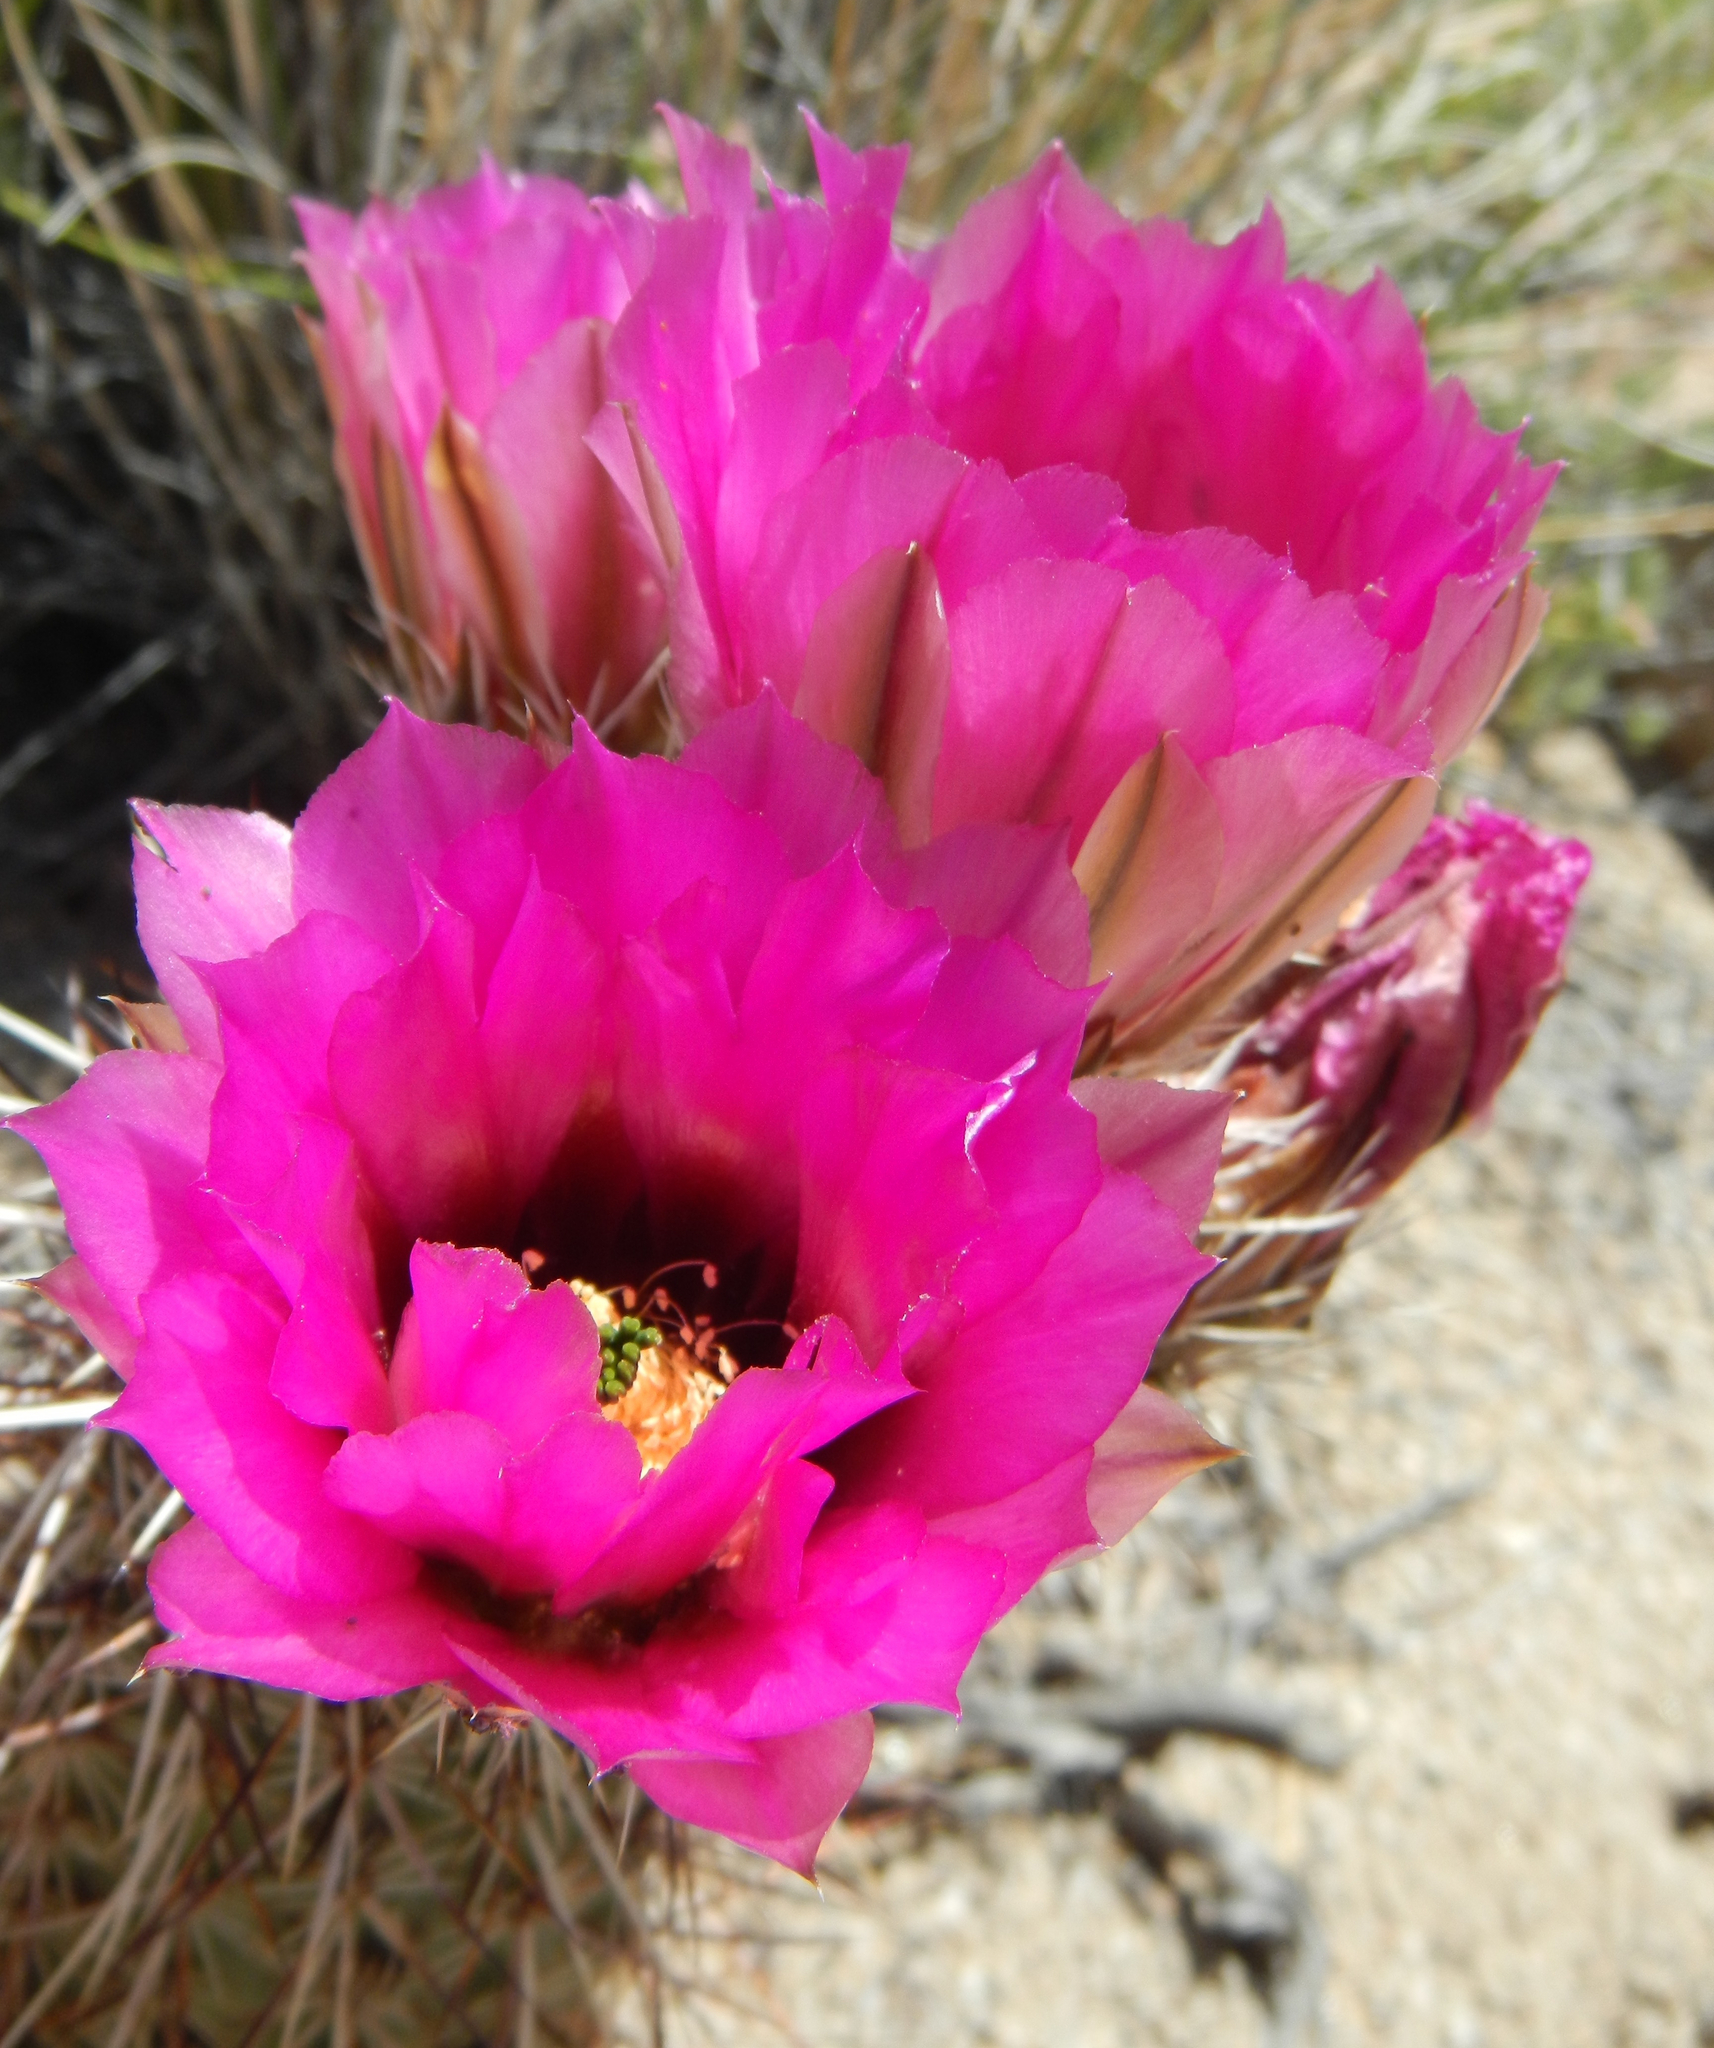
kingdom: Plantae
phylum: Tracheophyta
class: Magnoliopsida
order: Caryophyllales
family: Cactaceae
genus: Echinocereus
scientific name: Echinocereus engelmannii
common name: Engelmann's hedgehog cactus
